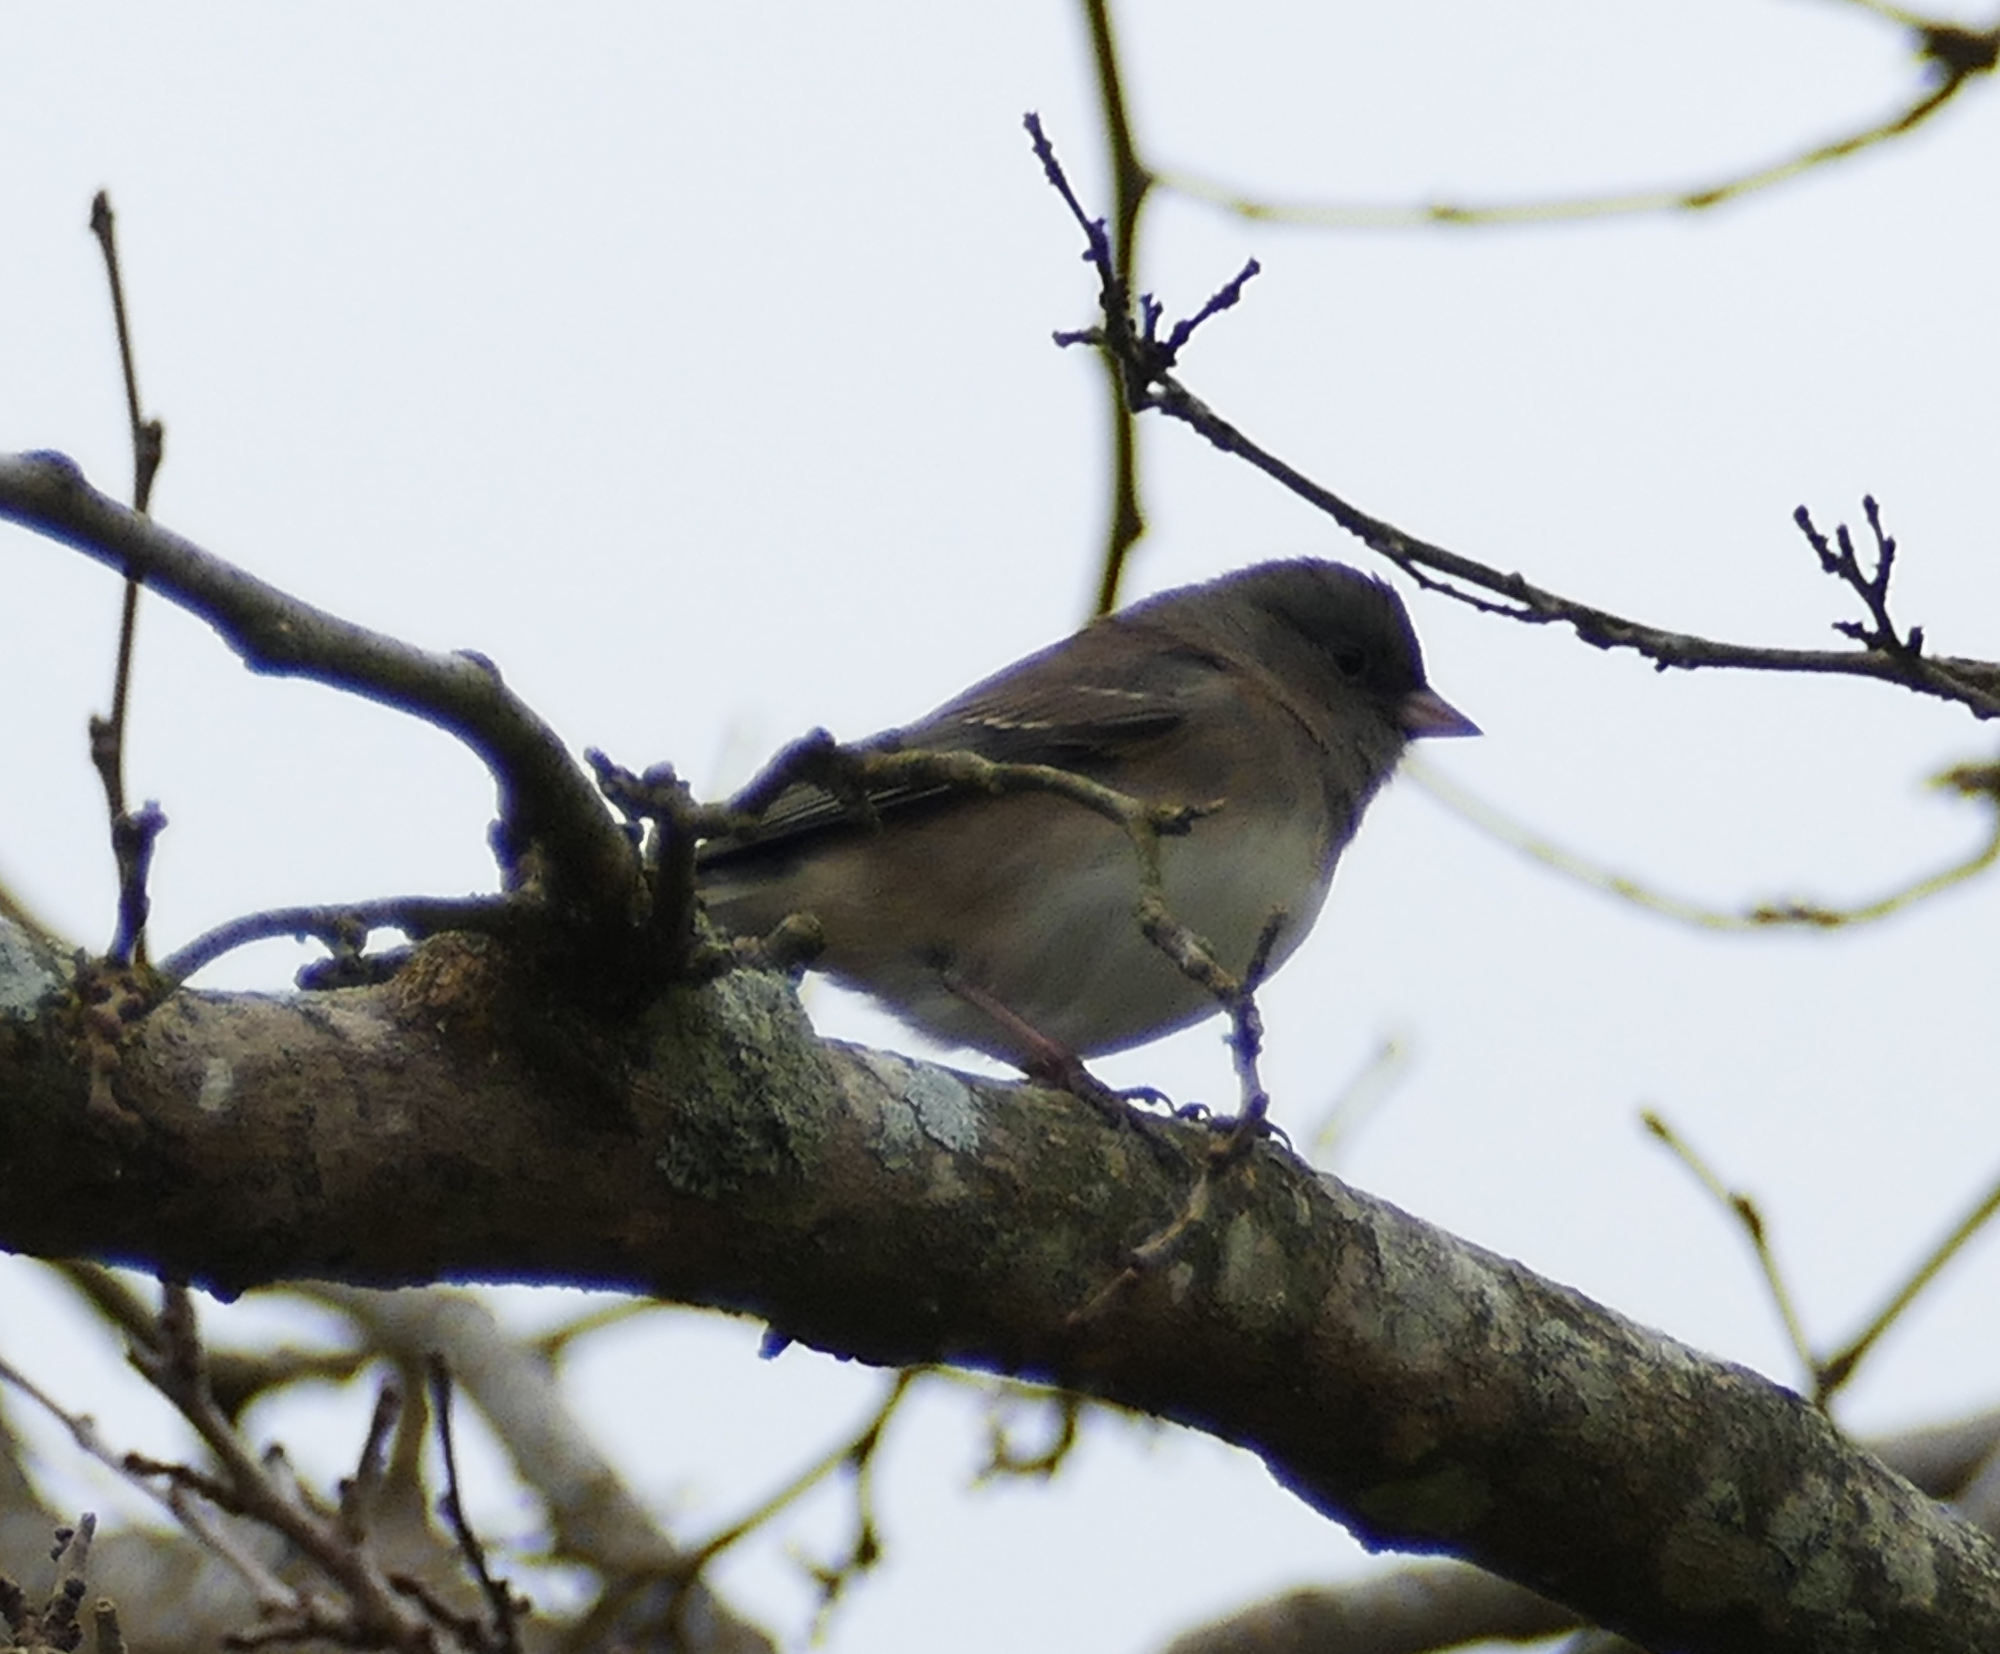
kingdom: Animalia
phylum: Chordata
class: Aves
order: Passeriformes
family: Passerellidae
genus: Junco
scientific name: Junco hyemalis
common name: Dark-eyed junco
